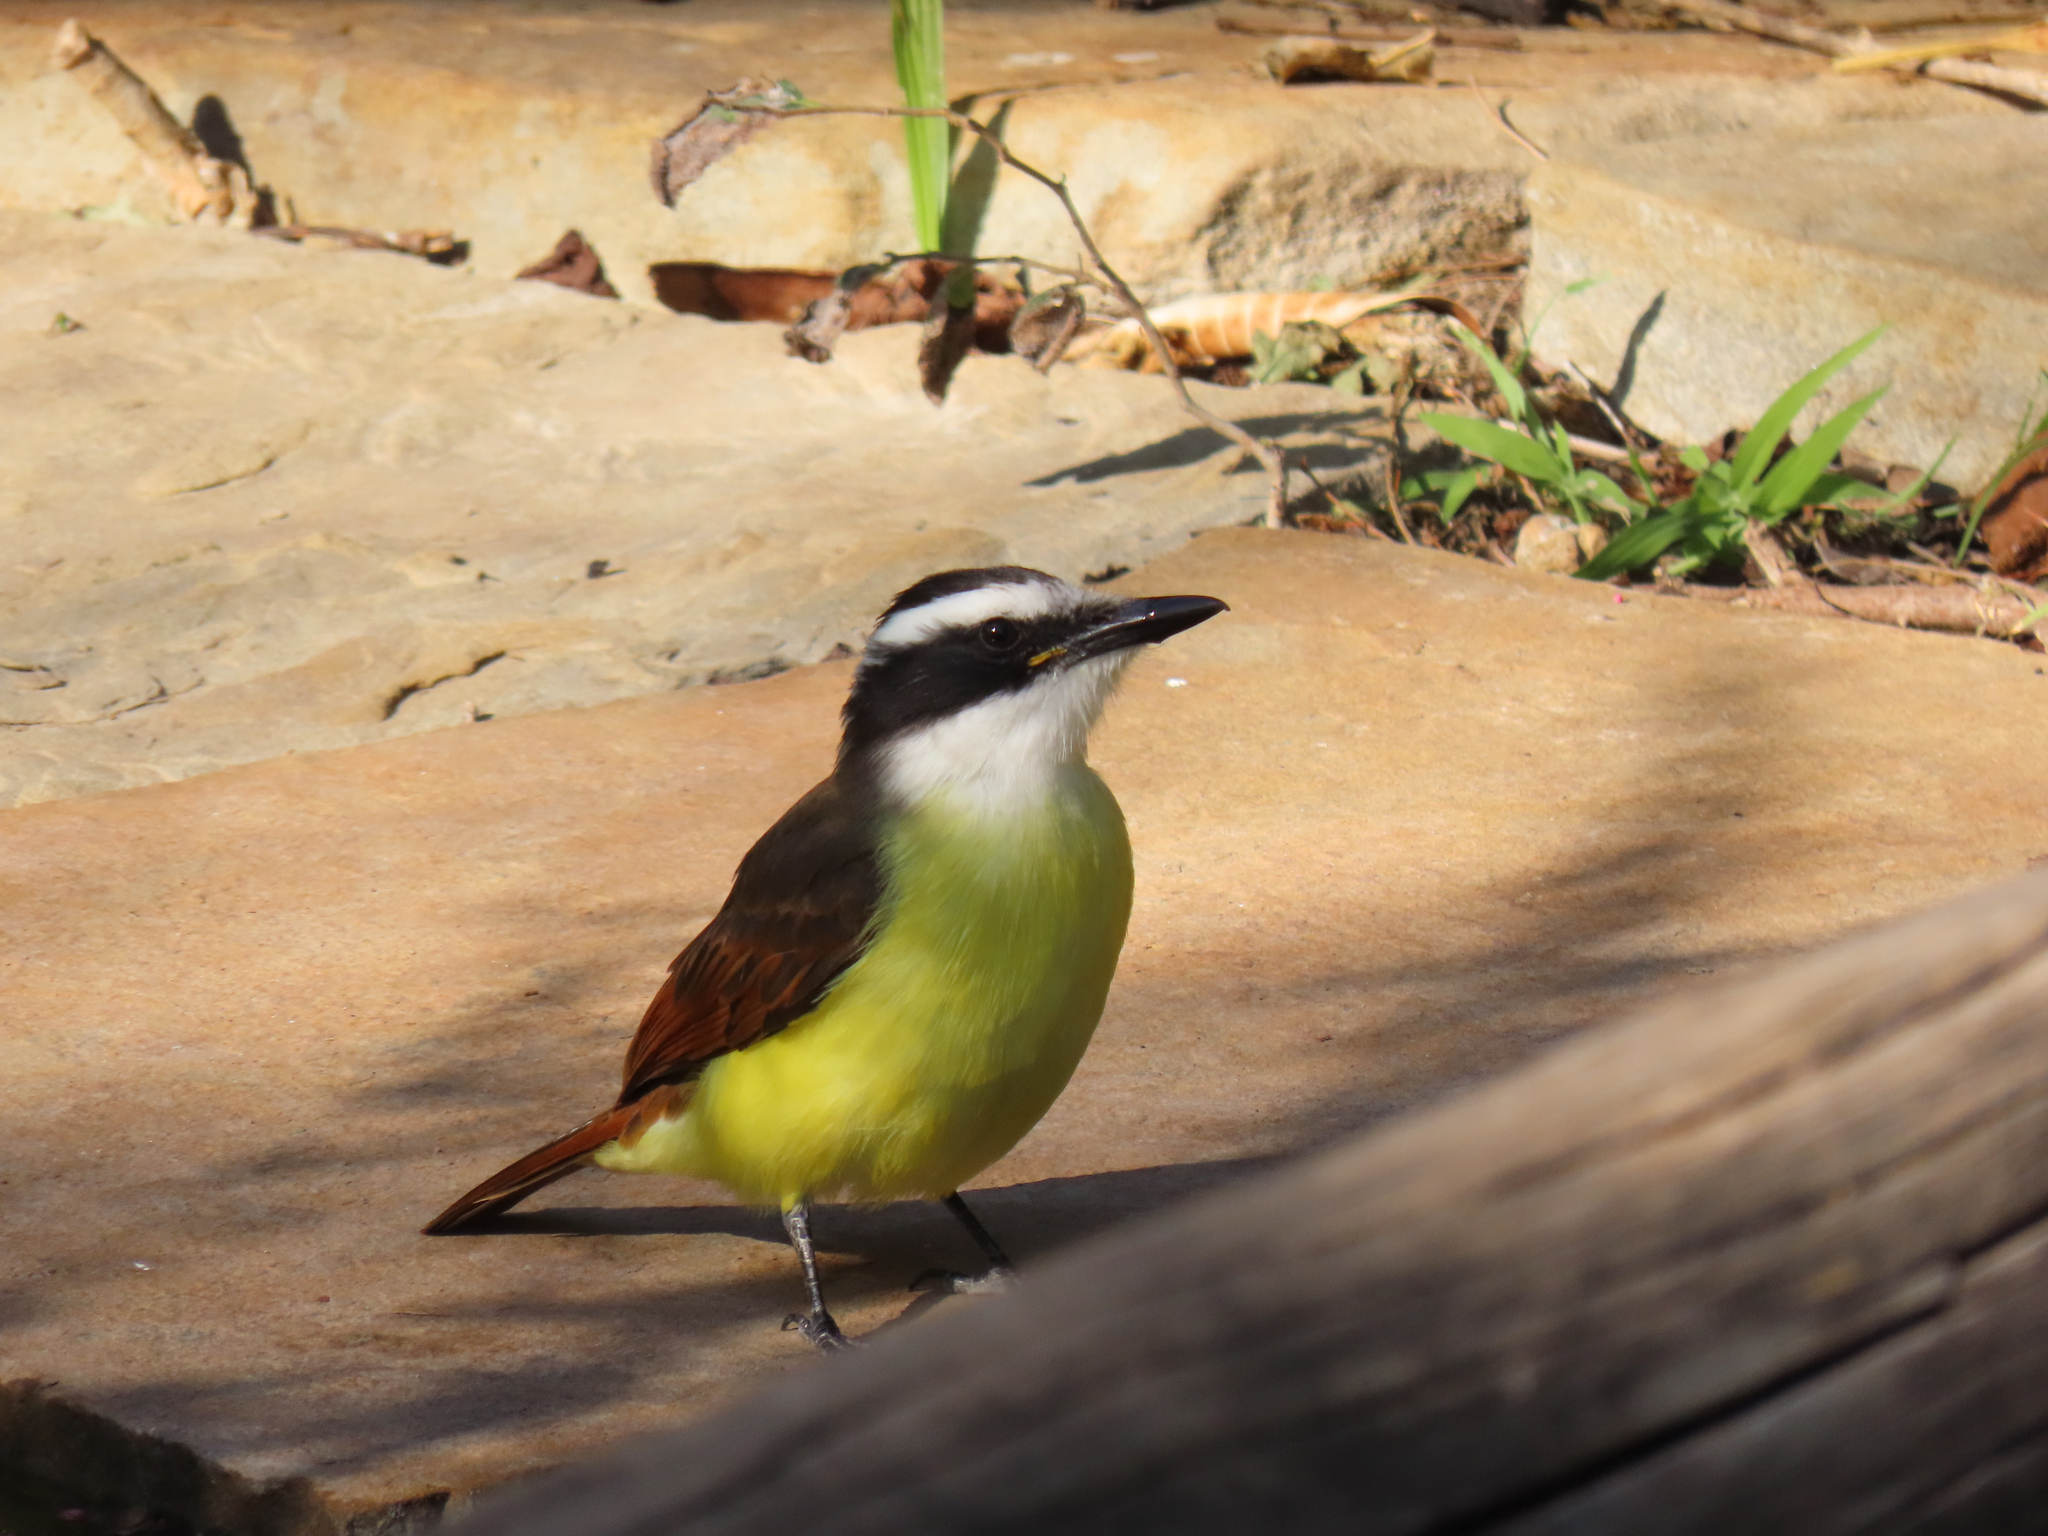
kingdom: Animalia
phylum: Chordata
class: Aves
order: Passeriformes
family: Tyrannidae
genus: Pitangus
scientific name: Pitangus sulphuratus
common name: Great kiskadee
